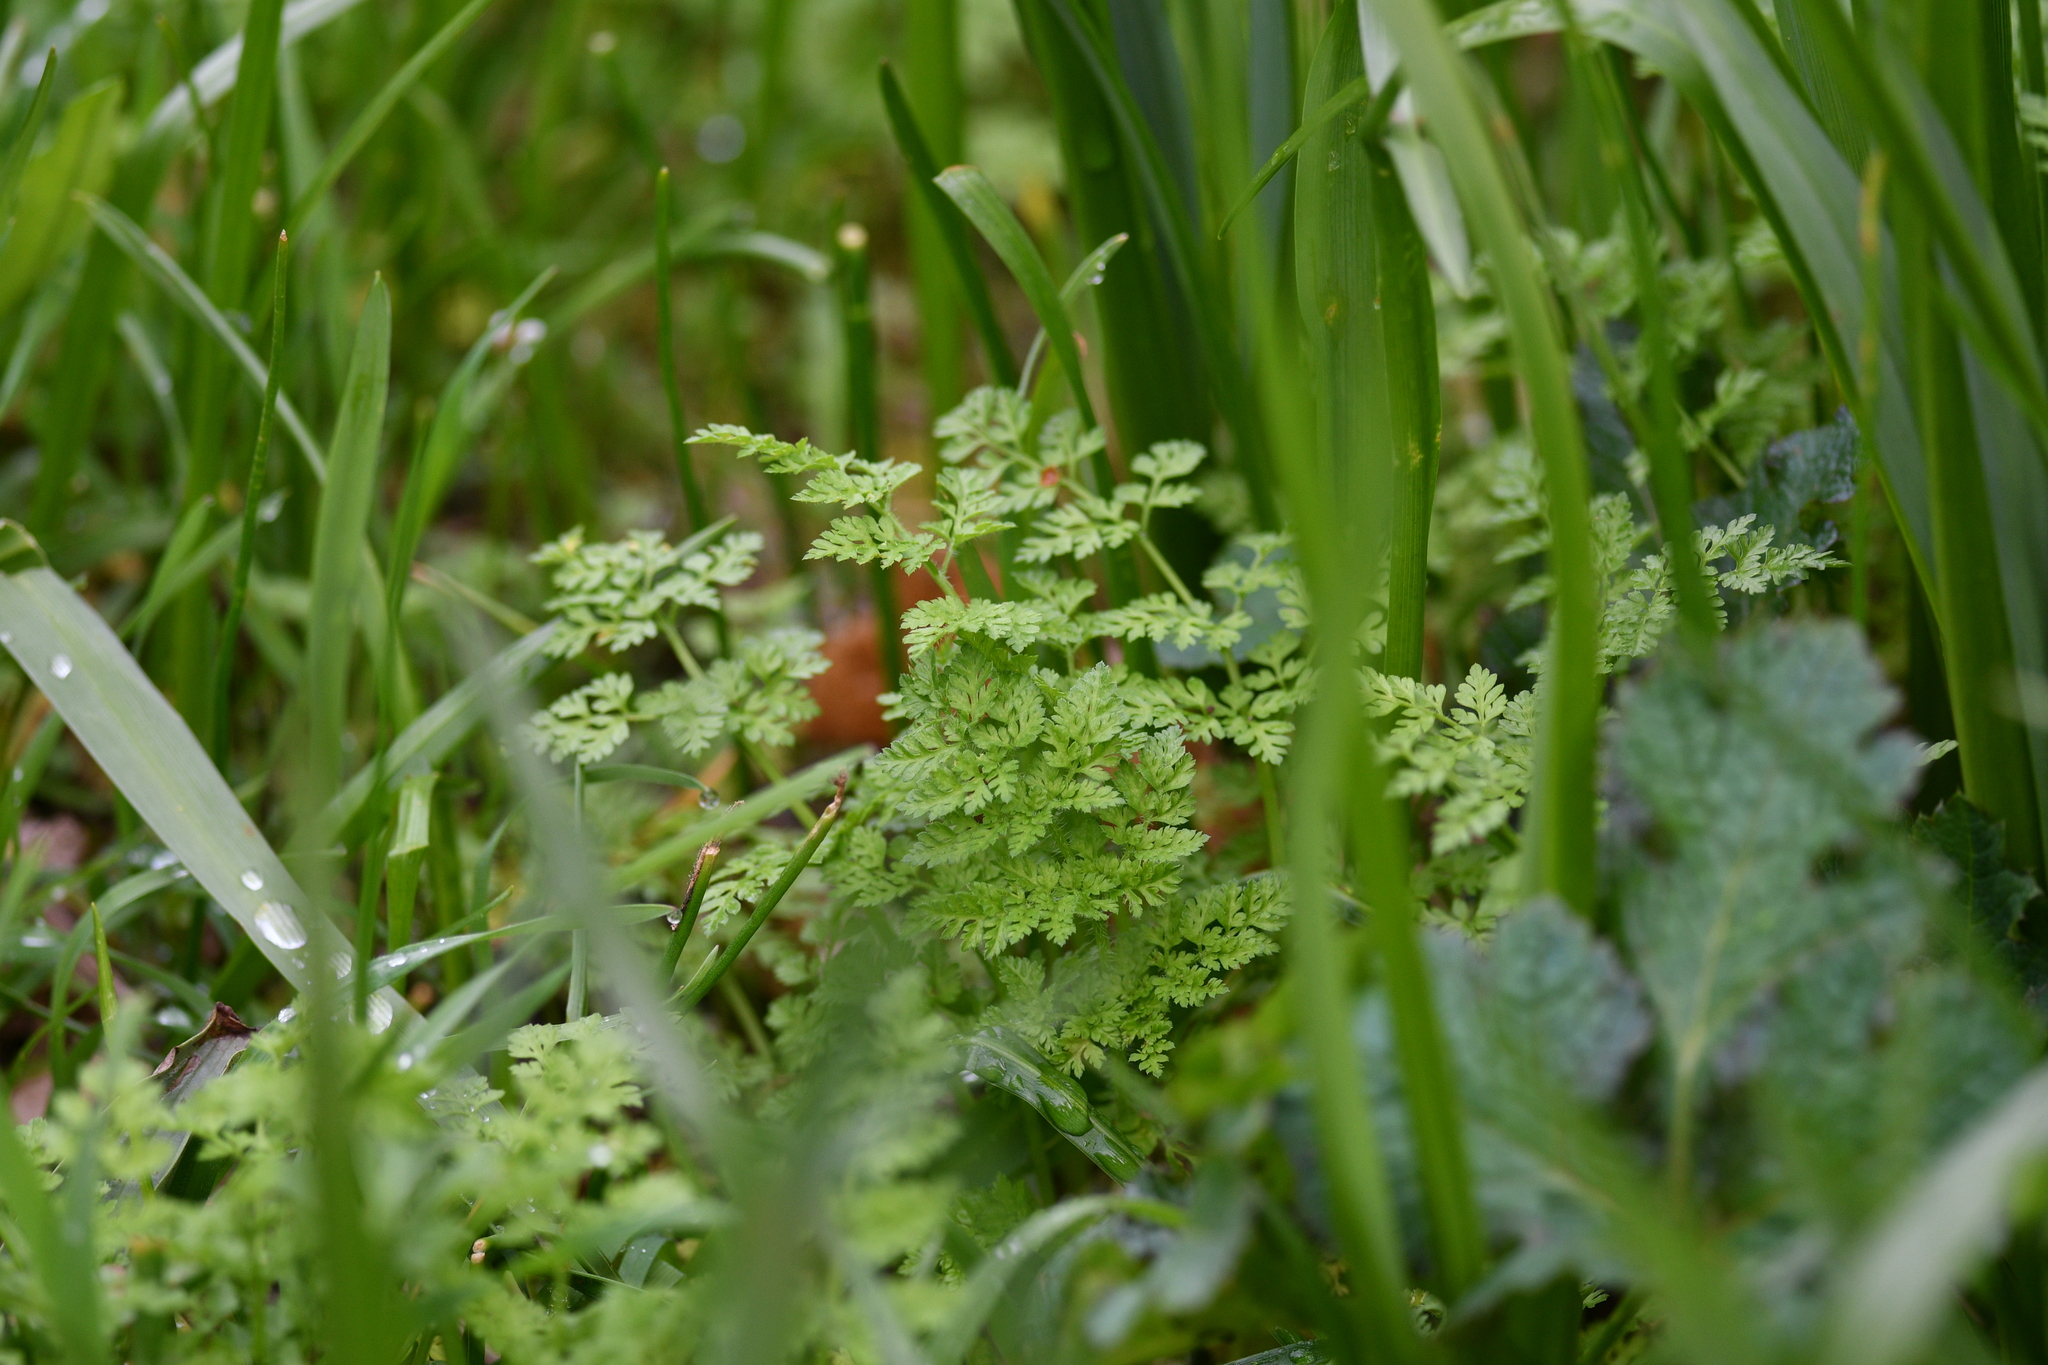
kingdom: Plantae
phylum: Tracheophyta
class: Magnoliopsida
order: Apiales
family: Apiaceae
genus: Anthriscus
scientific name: Anthriscus caucalis
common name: Bur chervil
